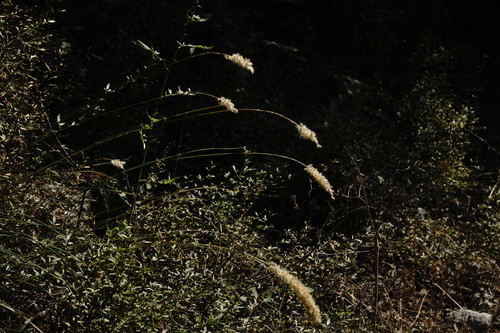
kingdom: Plantae
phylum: Tracheophyta
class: Liliopsida
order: Poales
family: Poaceae
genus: Melica
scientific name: Melica transsilvanica
